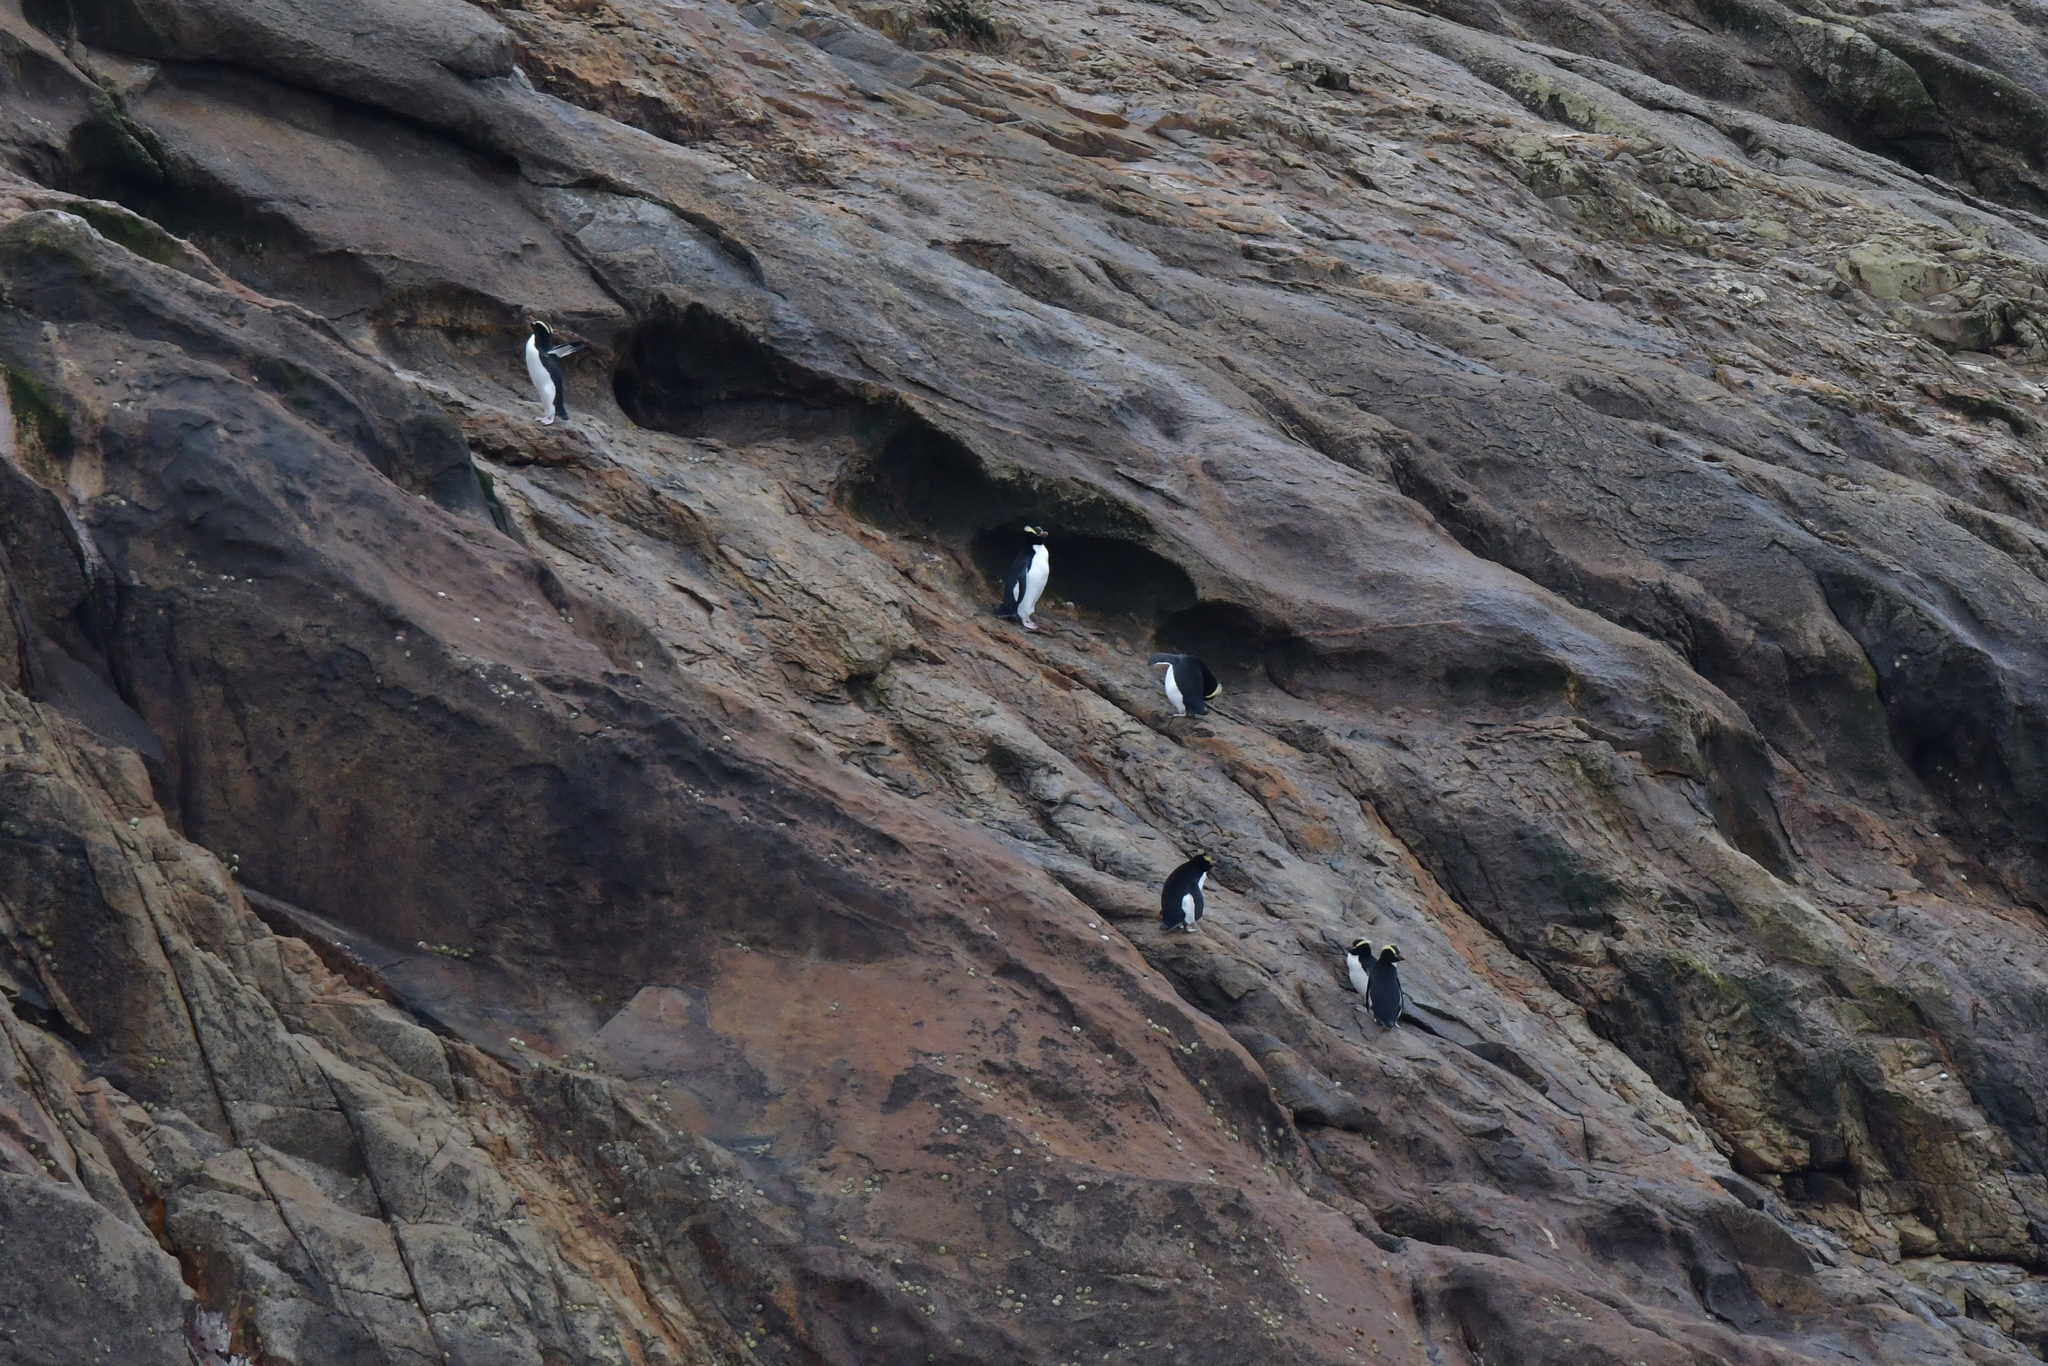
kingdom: Animalia
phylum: Chordata
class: Aves
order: Sphenisciformes
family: Spheniscidae
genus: Eudyptes
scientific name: Eudyptes sclateri
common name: Erect-crested penguin
